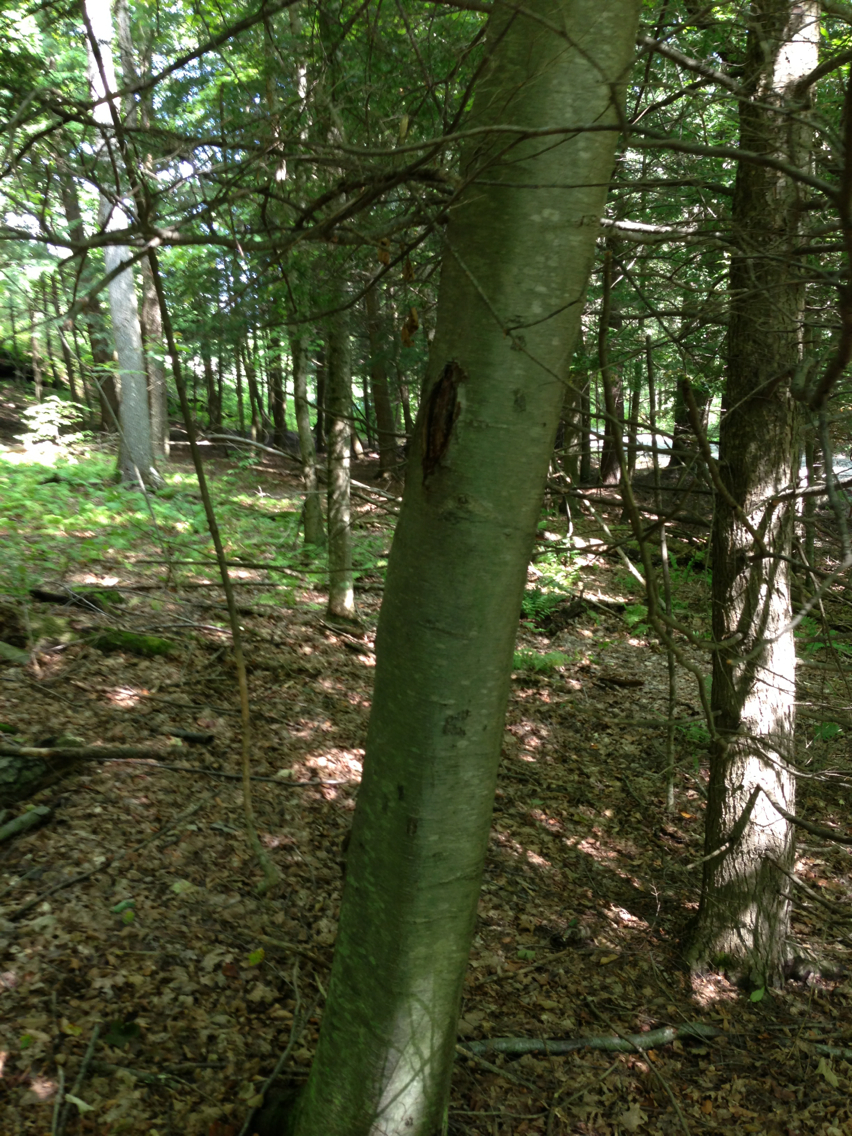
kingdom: Plantae
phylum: Tracheophyta
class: Magnoliopsida
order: Fagales
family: Betulaceae
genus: Betula
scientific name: Betula lenta
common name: Black birch
